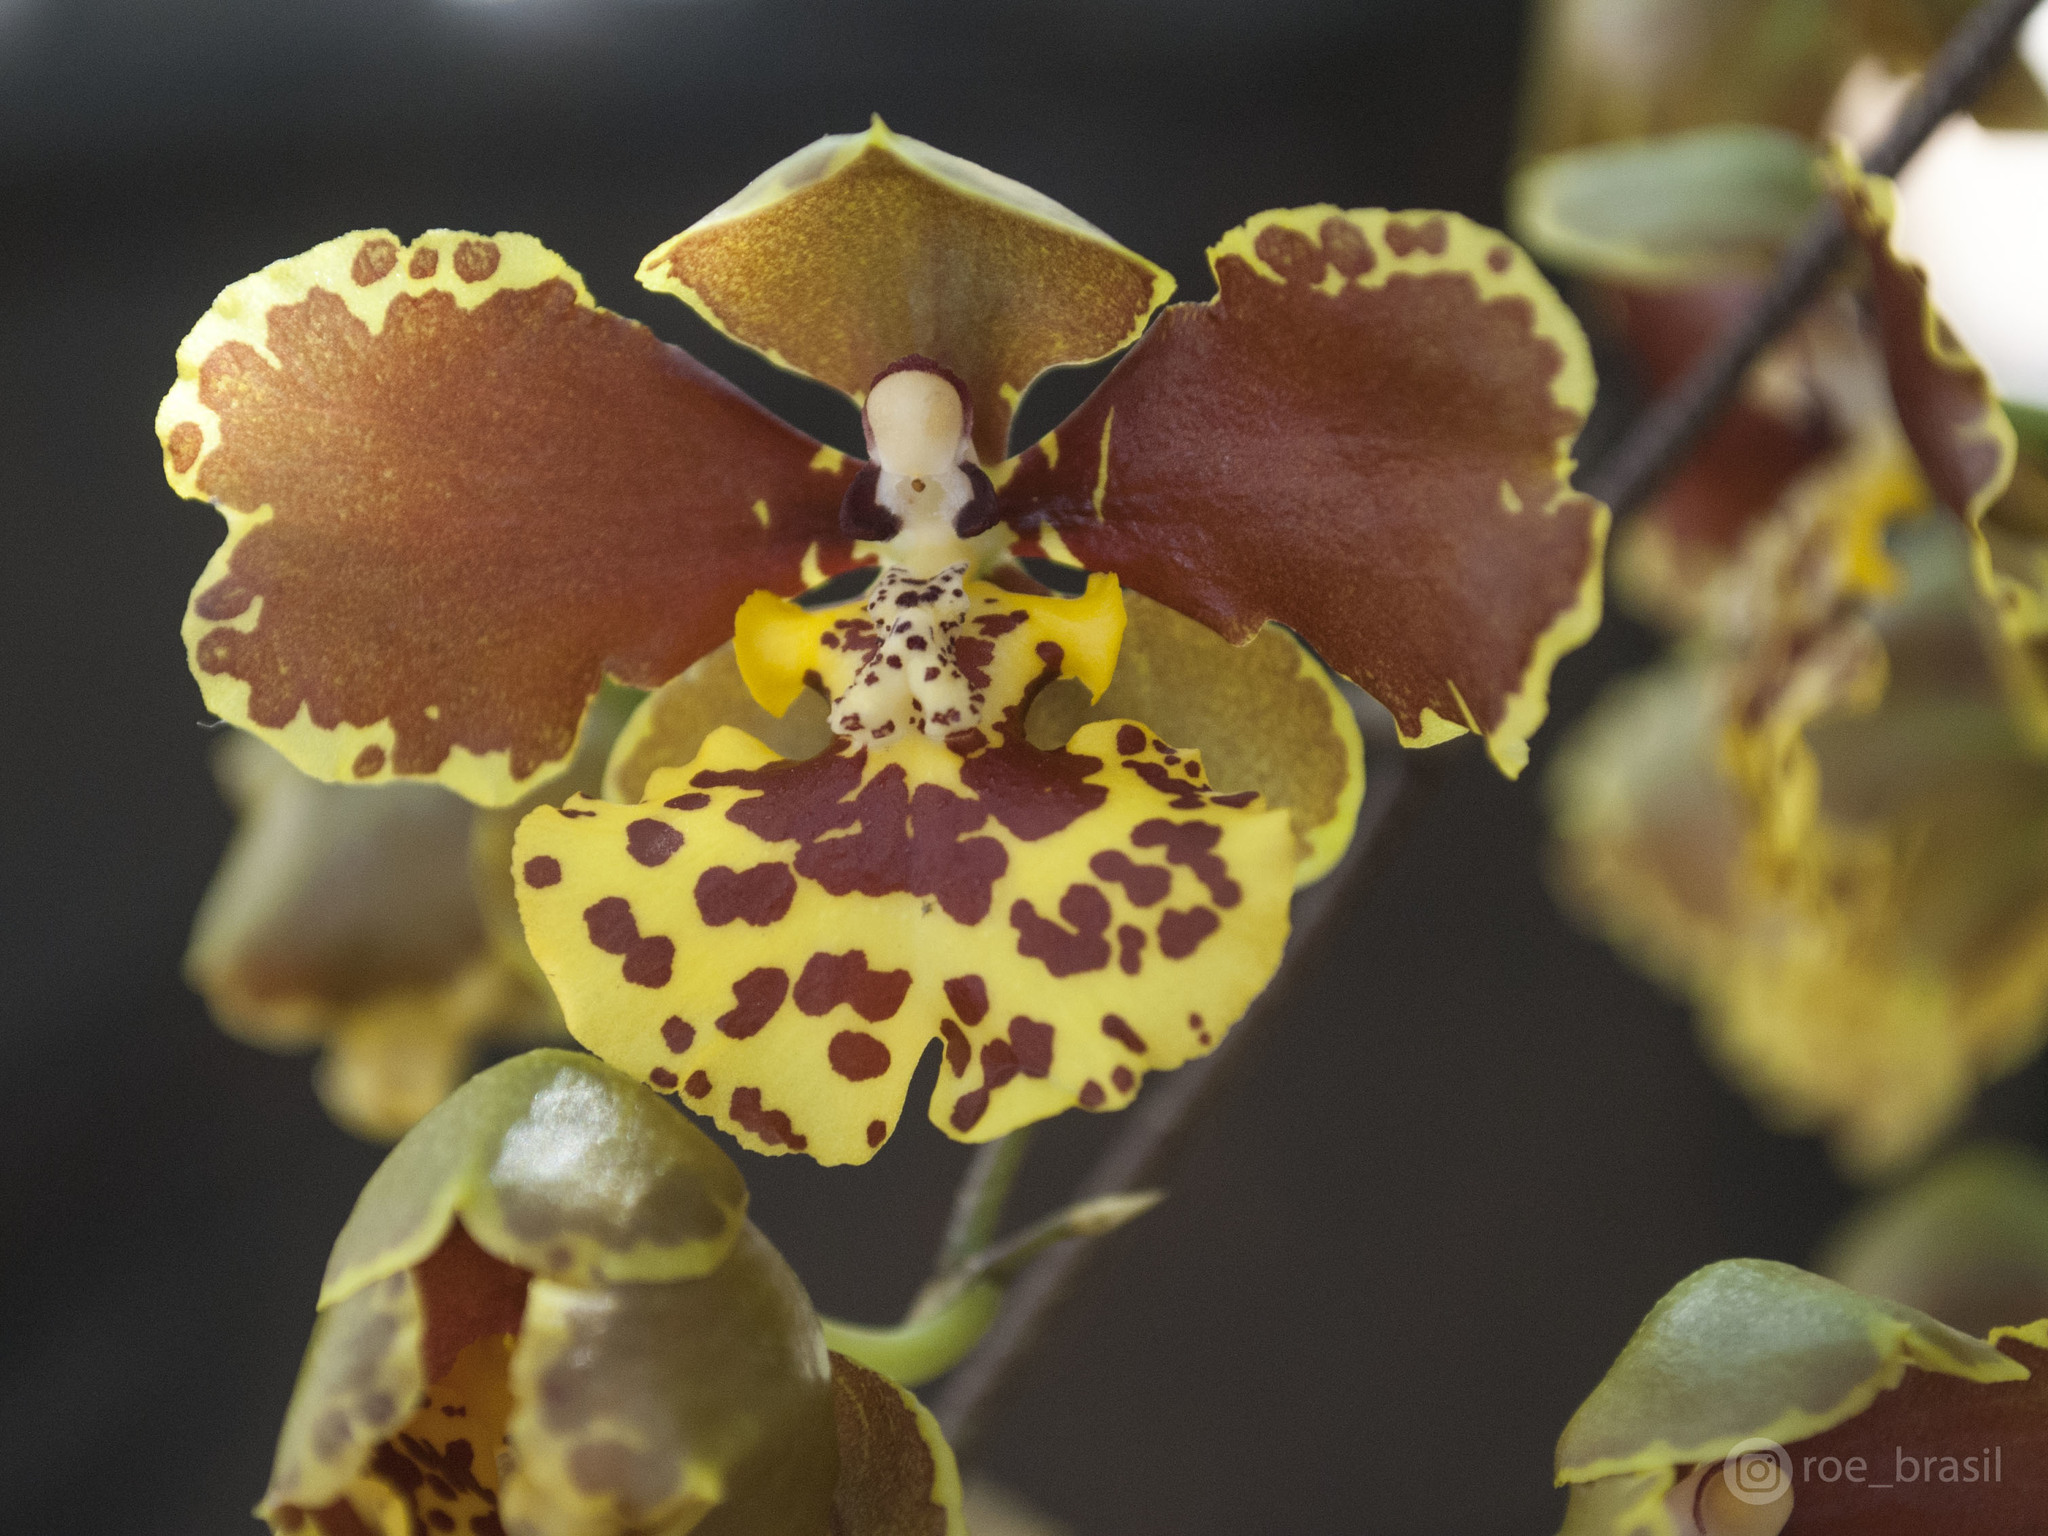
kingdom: Plantae
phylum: Tracheophyta
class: Liliopsida
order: Asparagales
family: Orchidaceae
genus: Gomesa
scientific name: Gomesa sarcodes
